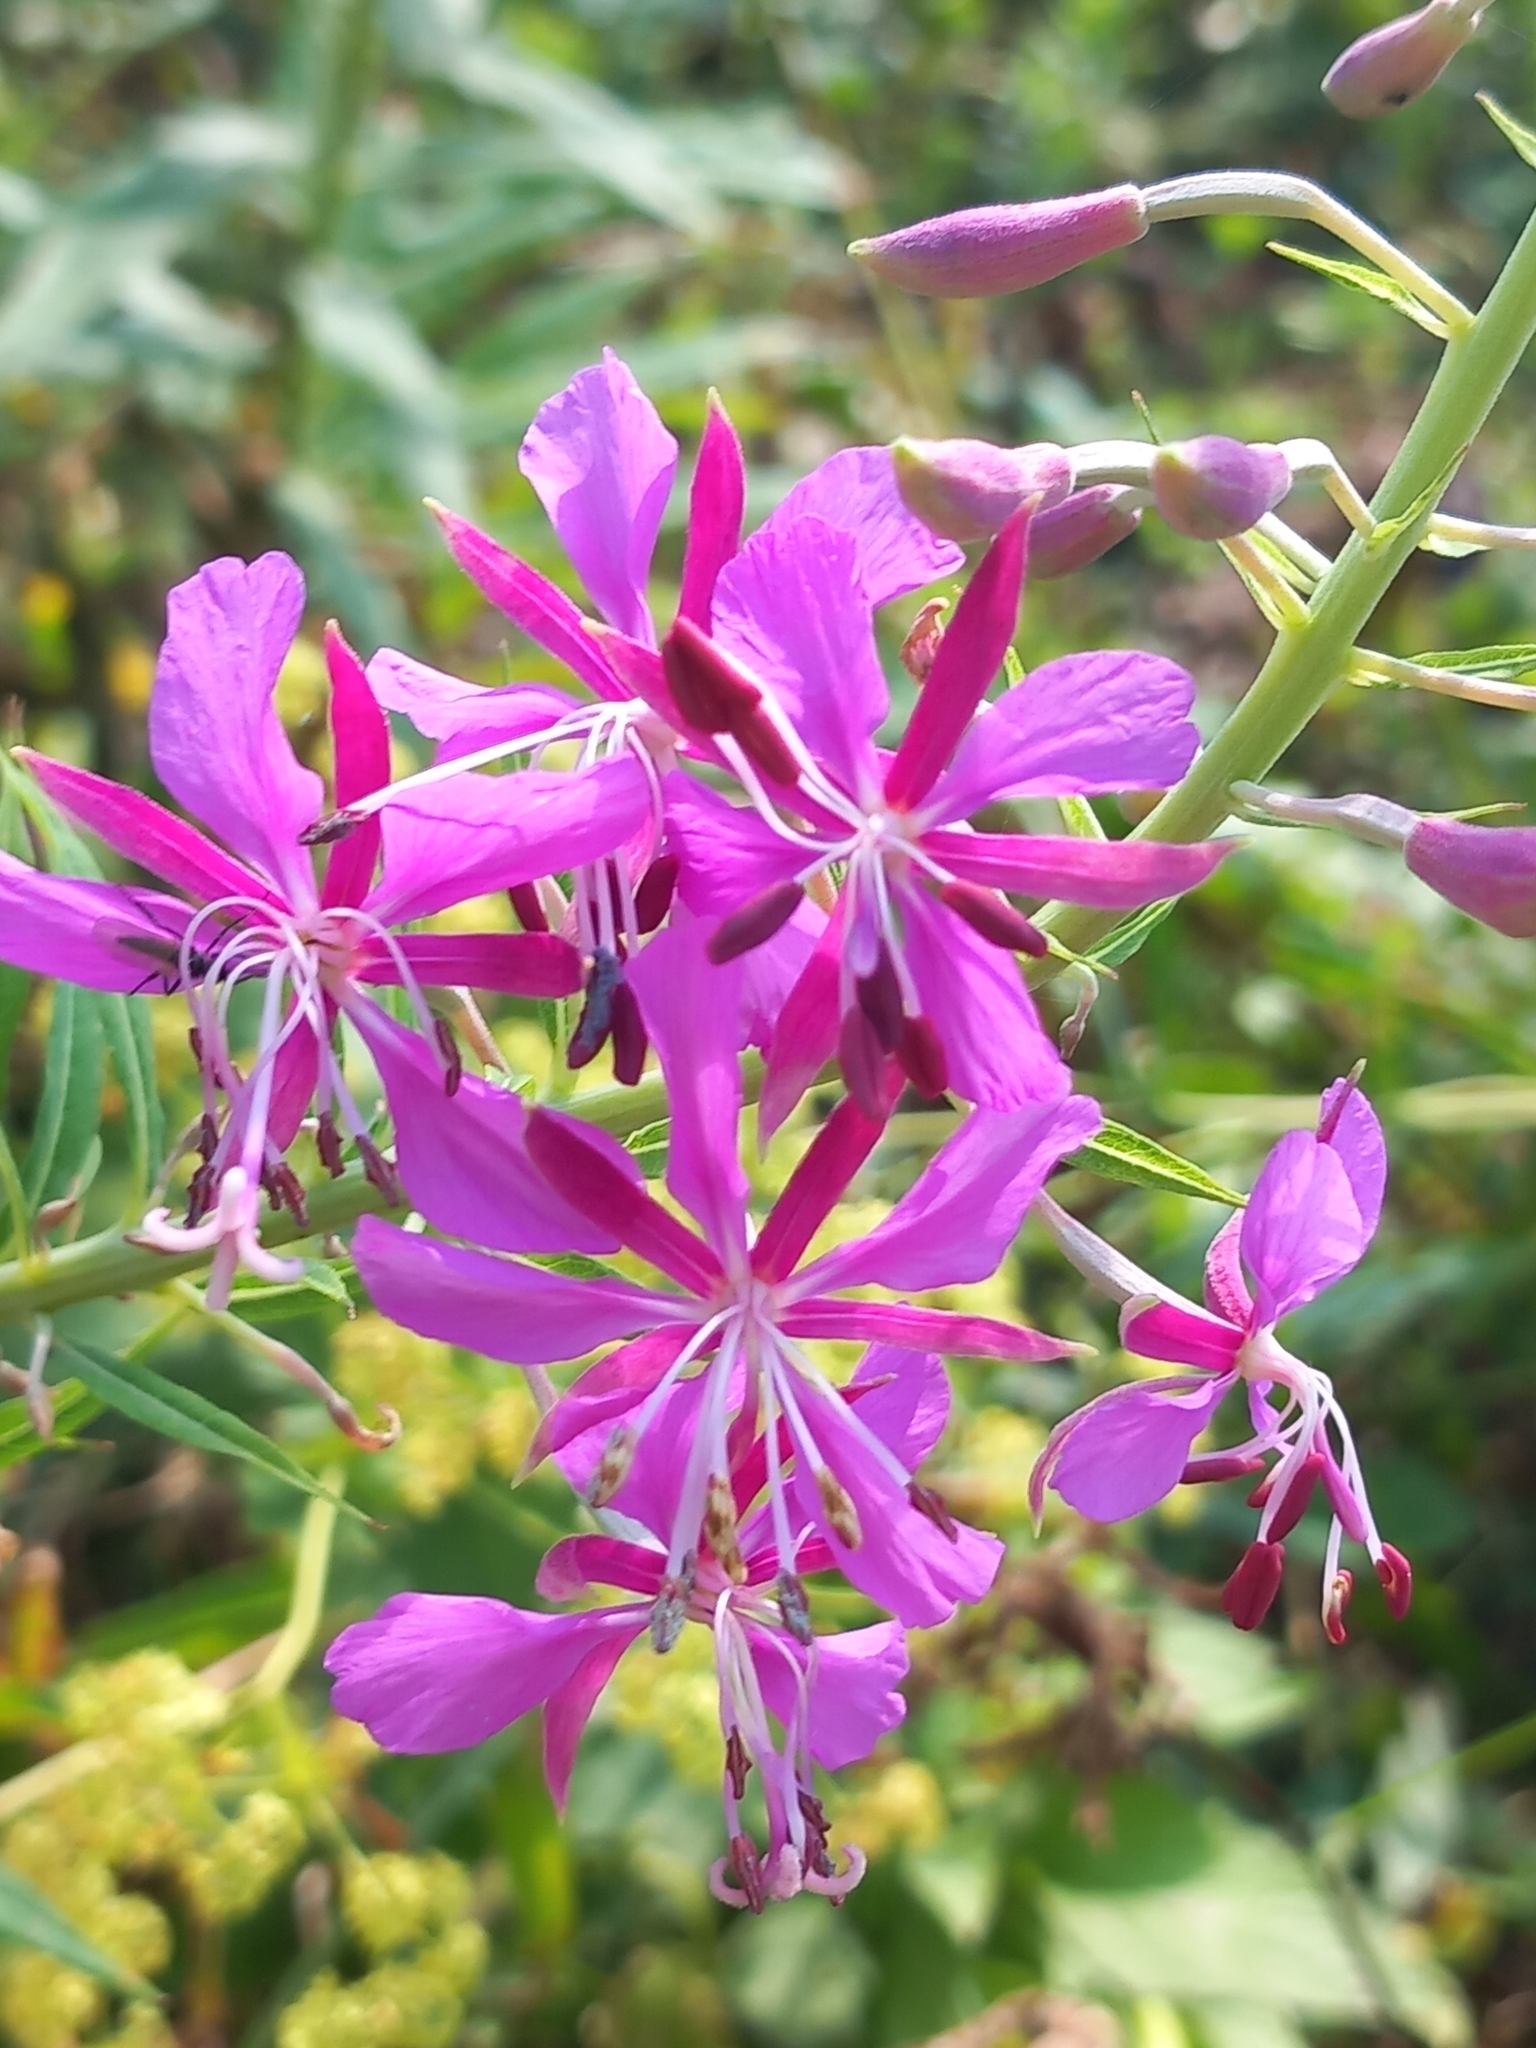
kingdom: Plantae
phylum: Tracheophyta
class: Magnoliopsida
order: Myrtales
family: Onagraceae
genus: Chamaenerion
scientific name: Chamaenerion angustifolium
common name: Fireweed
